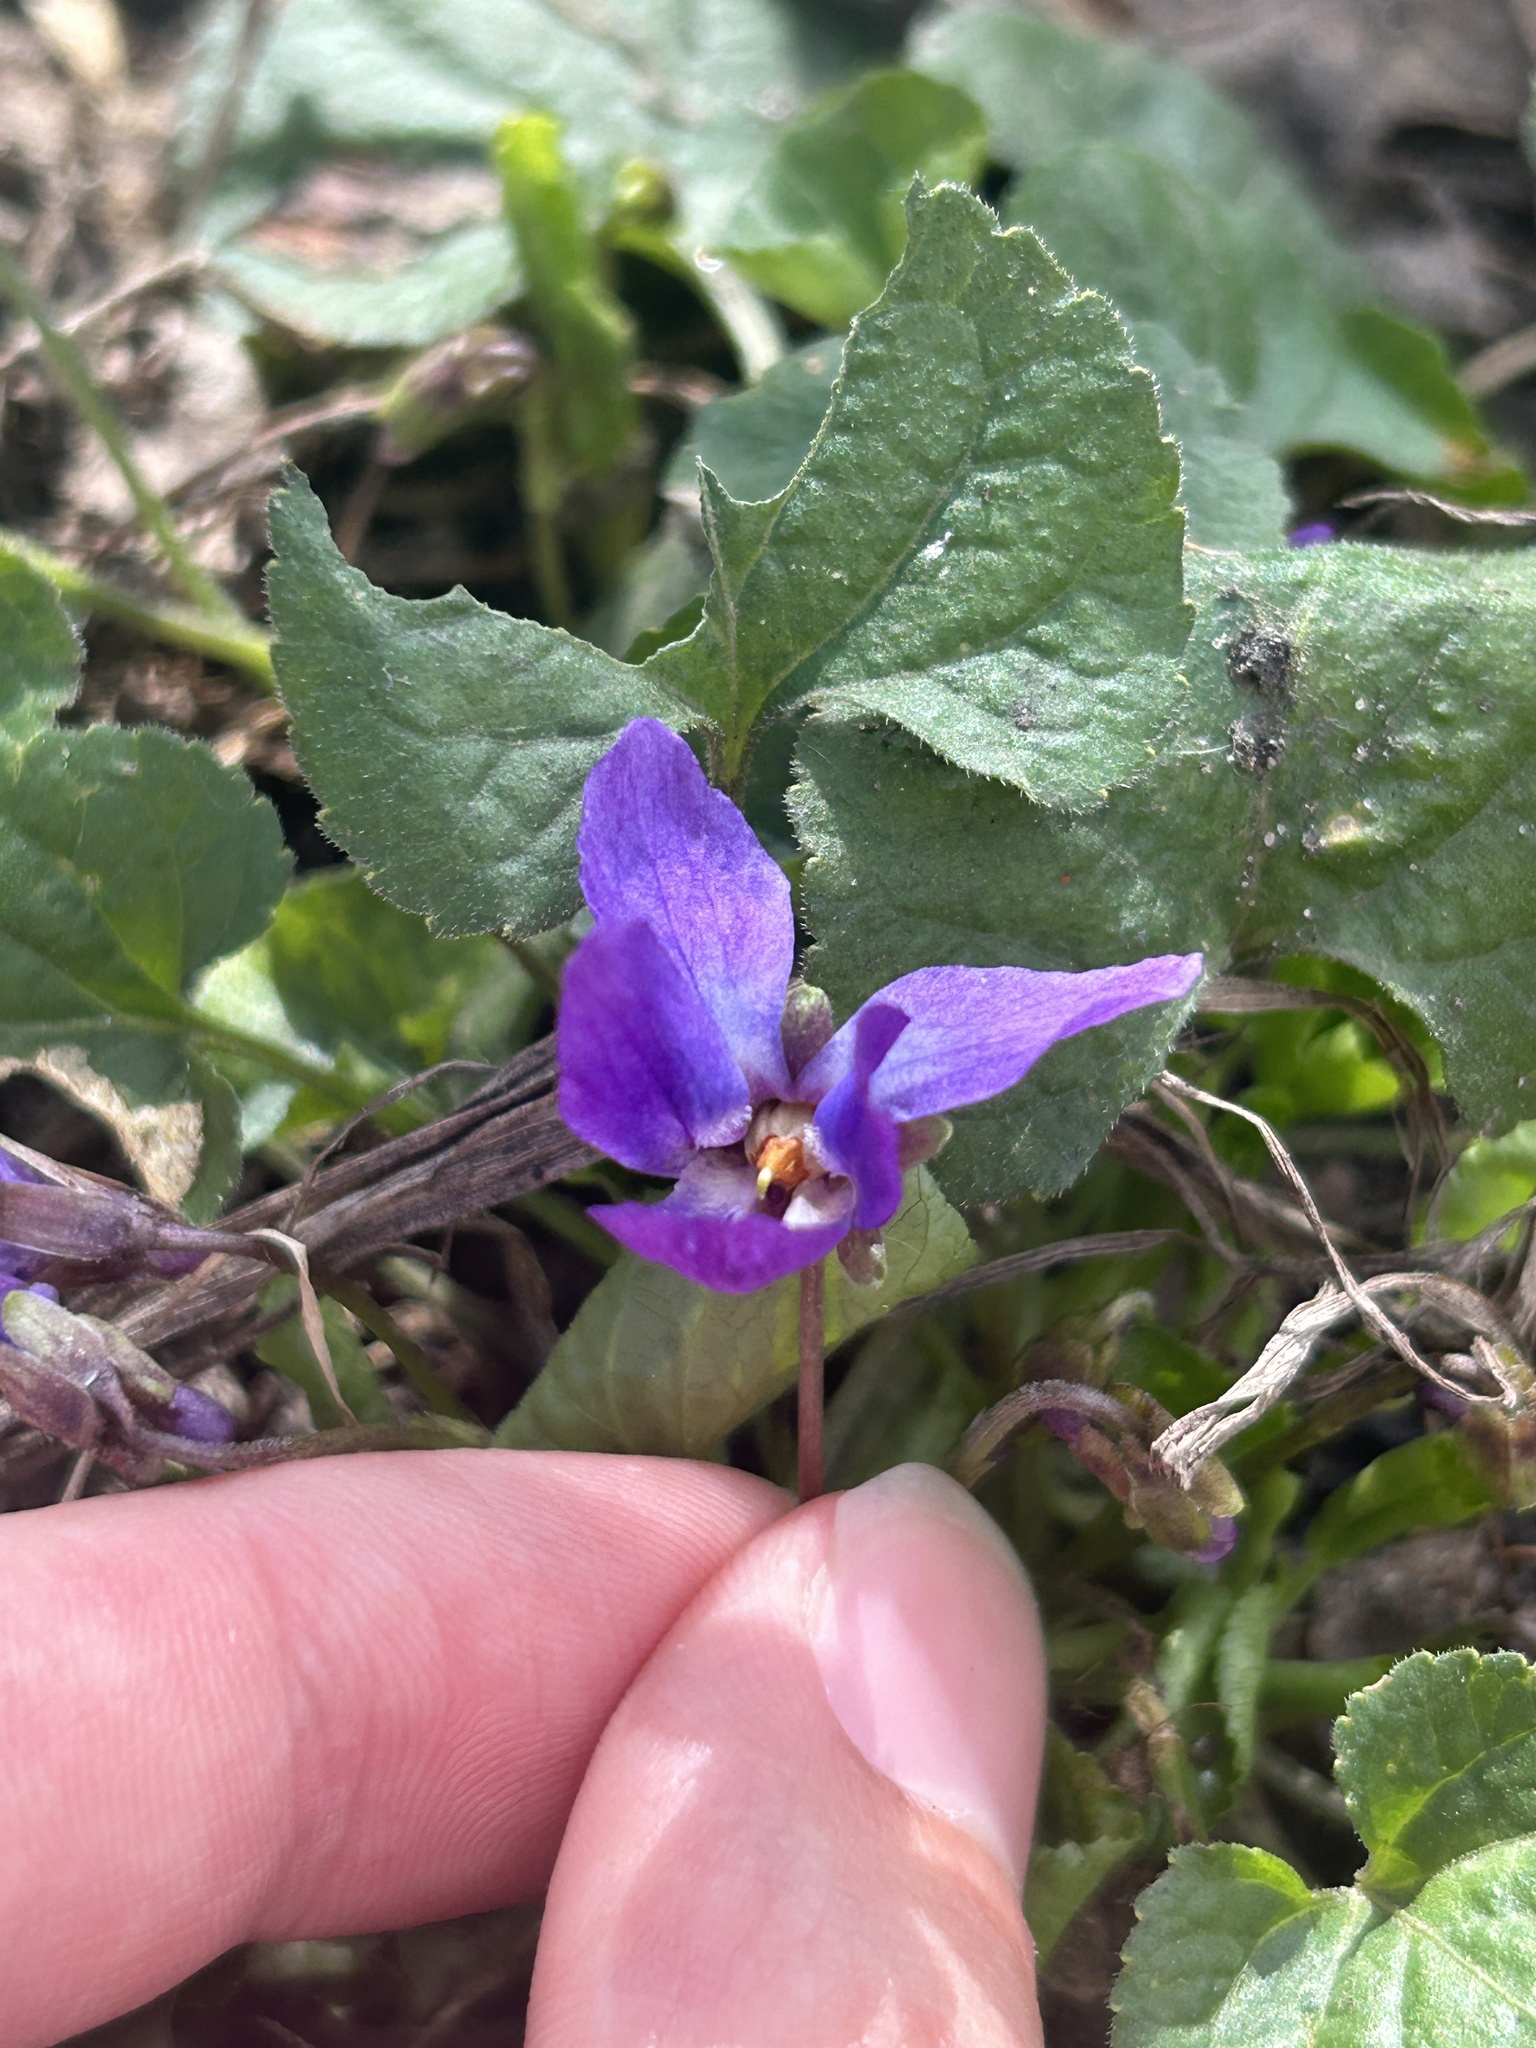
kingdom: Plantae
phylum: Tracheophyta
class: Magnoliopsida
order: Malpighiales
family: Violaceae
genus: Viola
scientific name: Viola odorata
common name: Sweet violet
